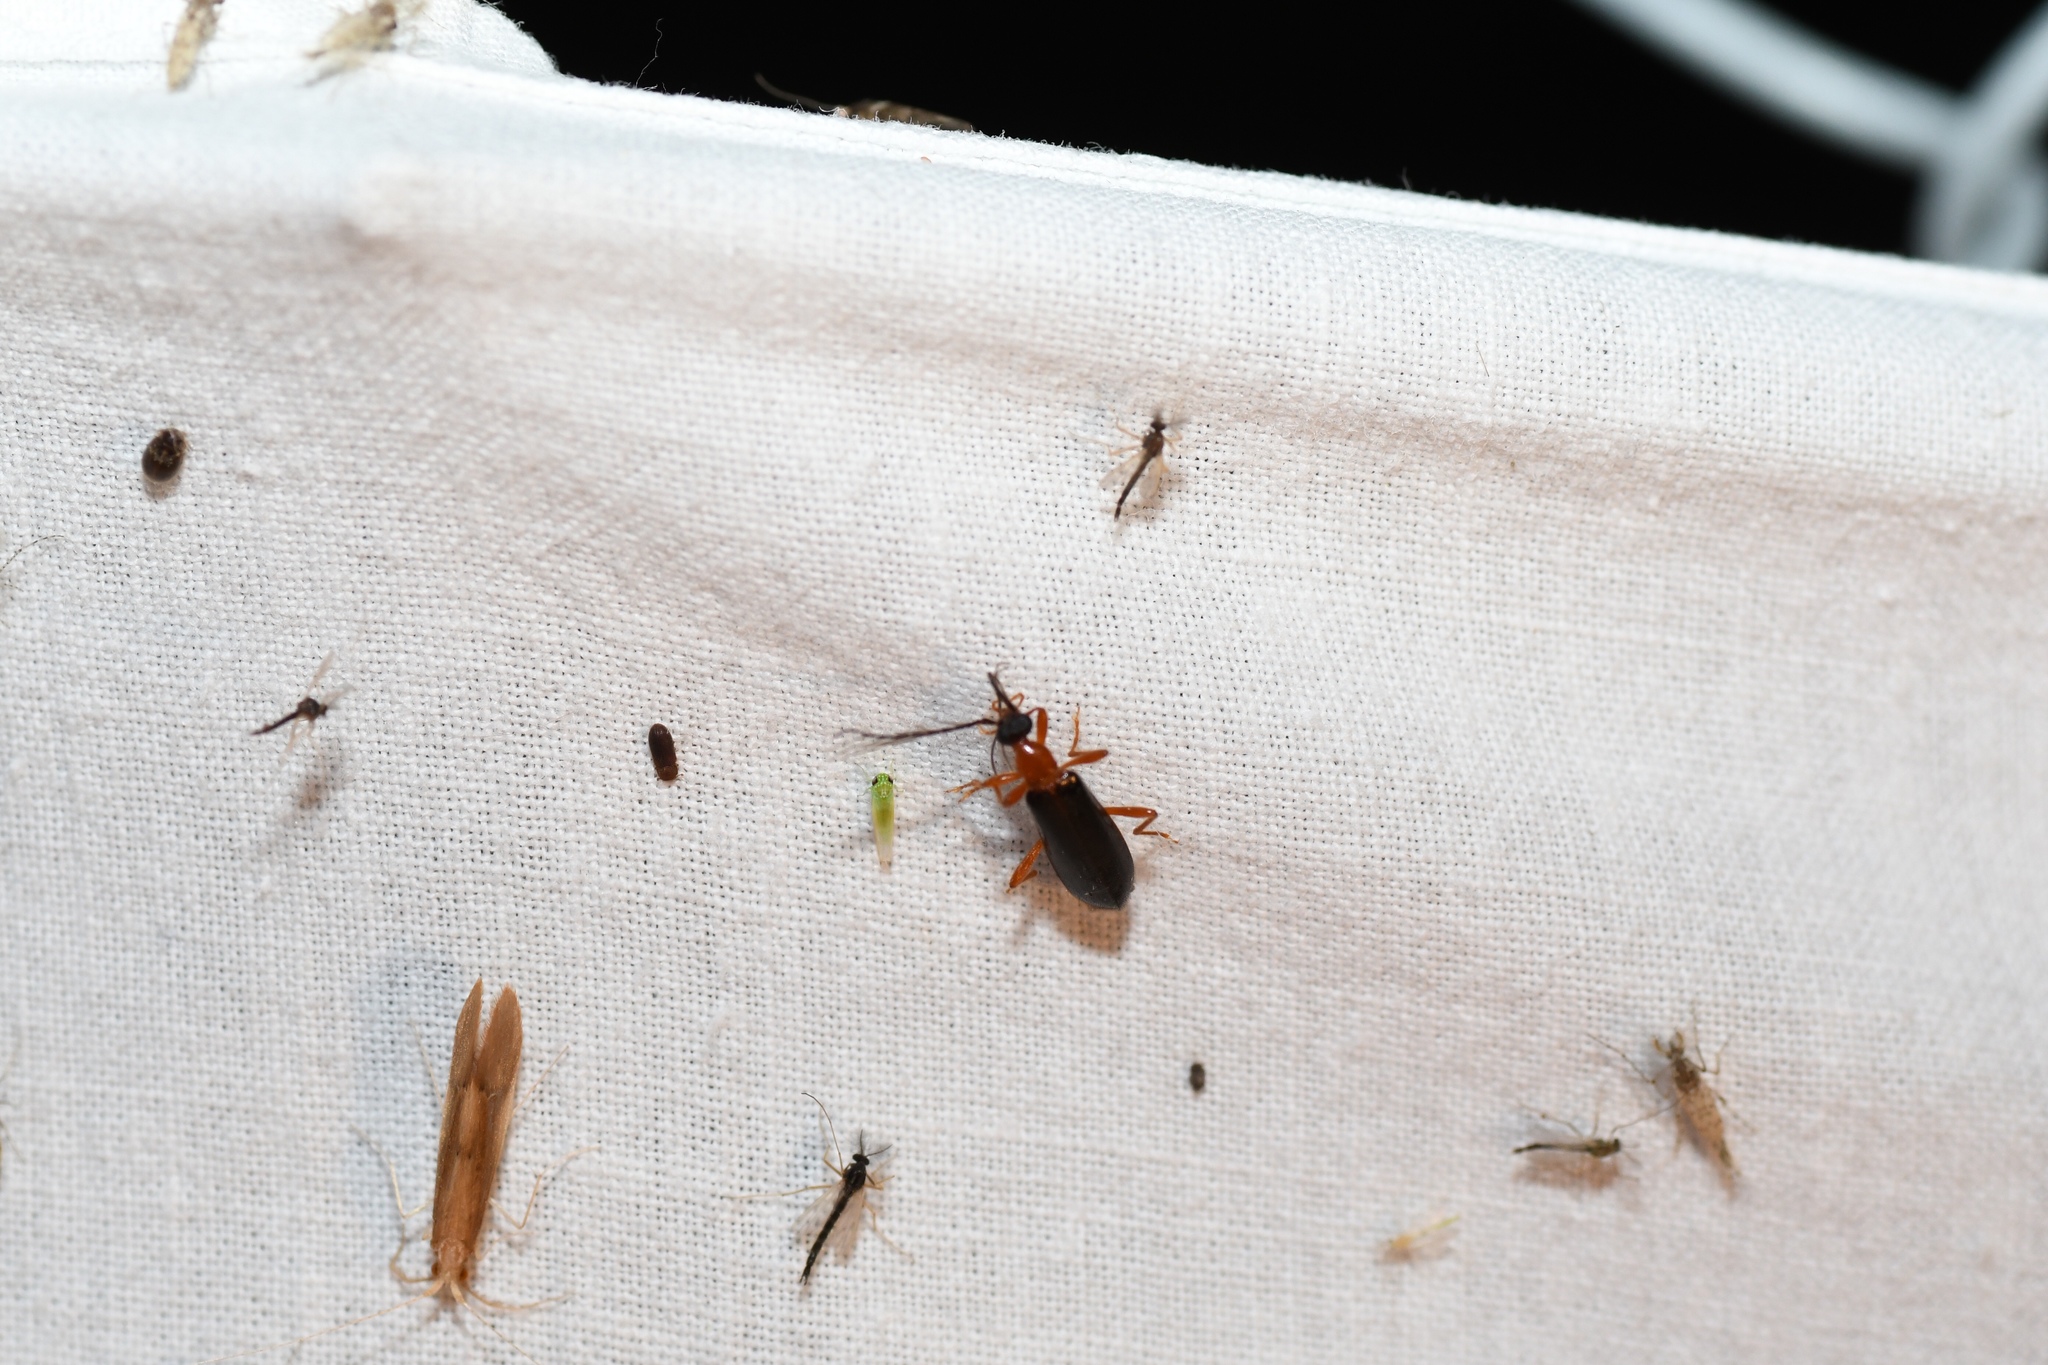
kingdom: Animalia
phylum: Arthropoda
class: Insecta
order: Coleoptera
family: Pyrochroidae
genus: Dendroides
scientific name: Dendroides canadensis
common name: Canada fire-colored beetle
